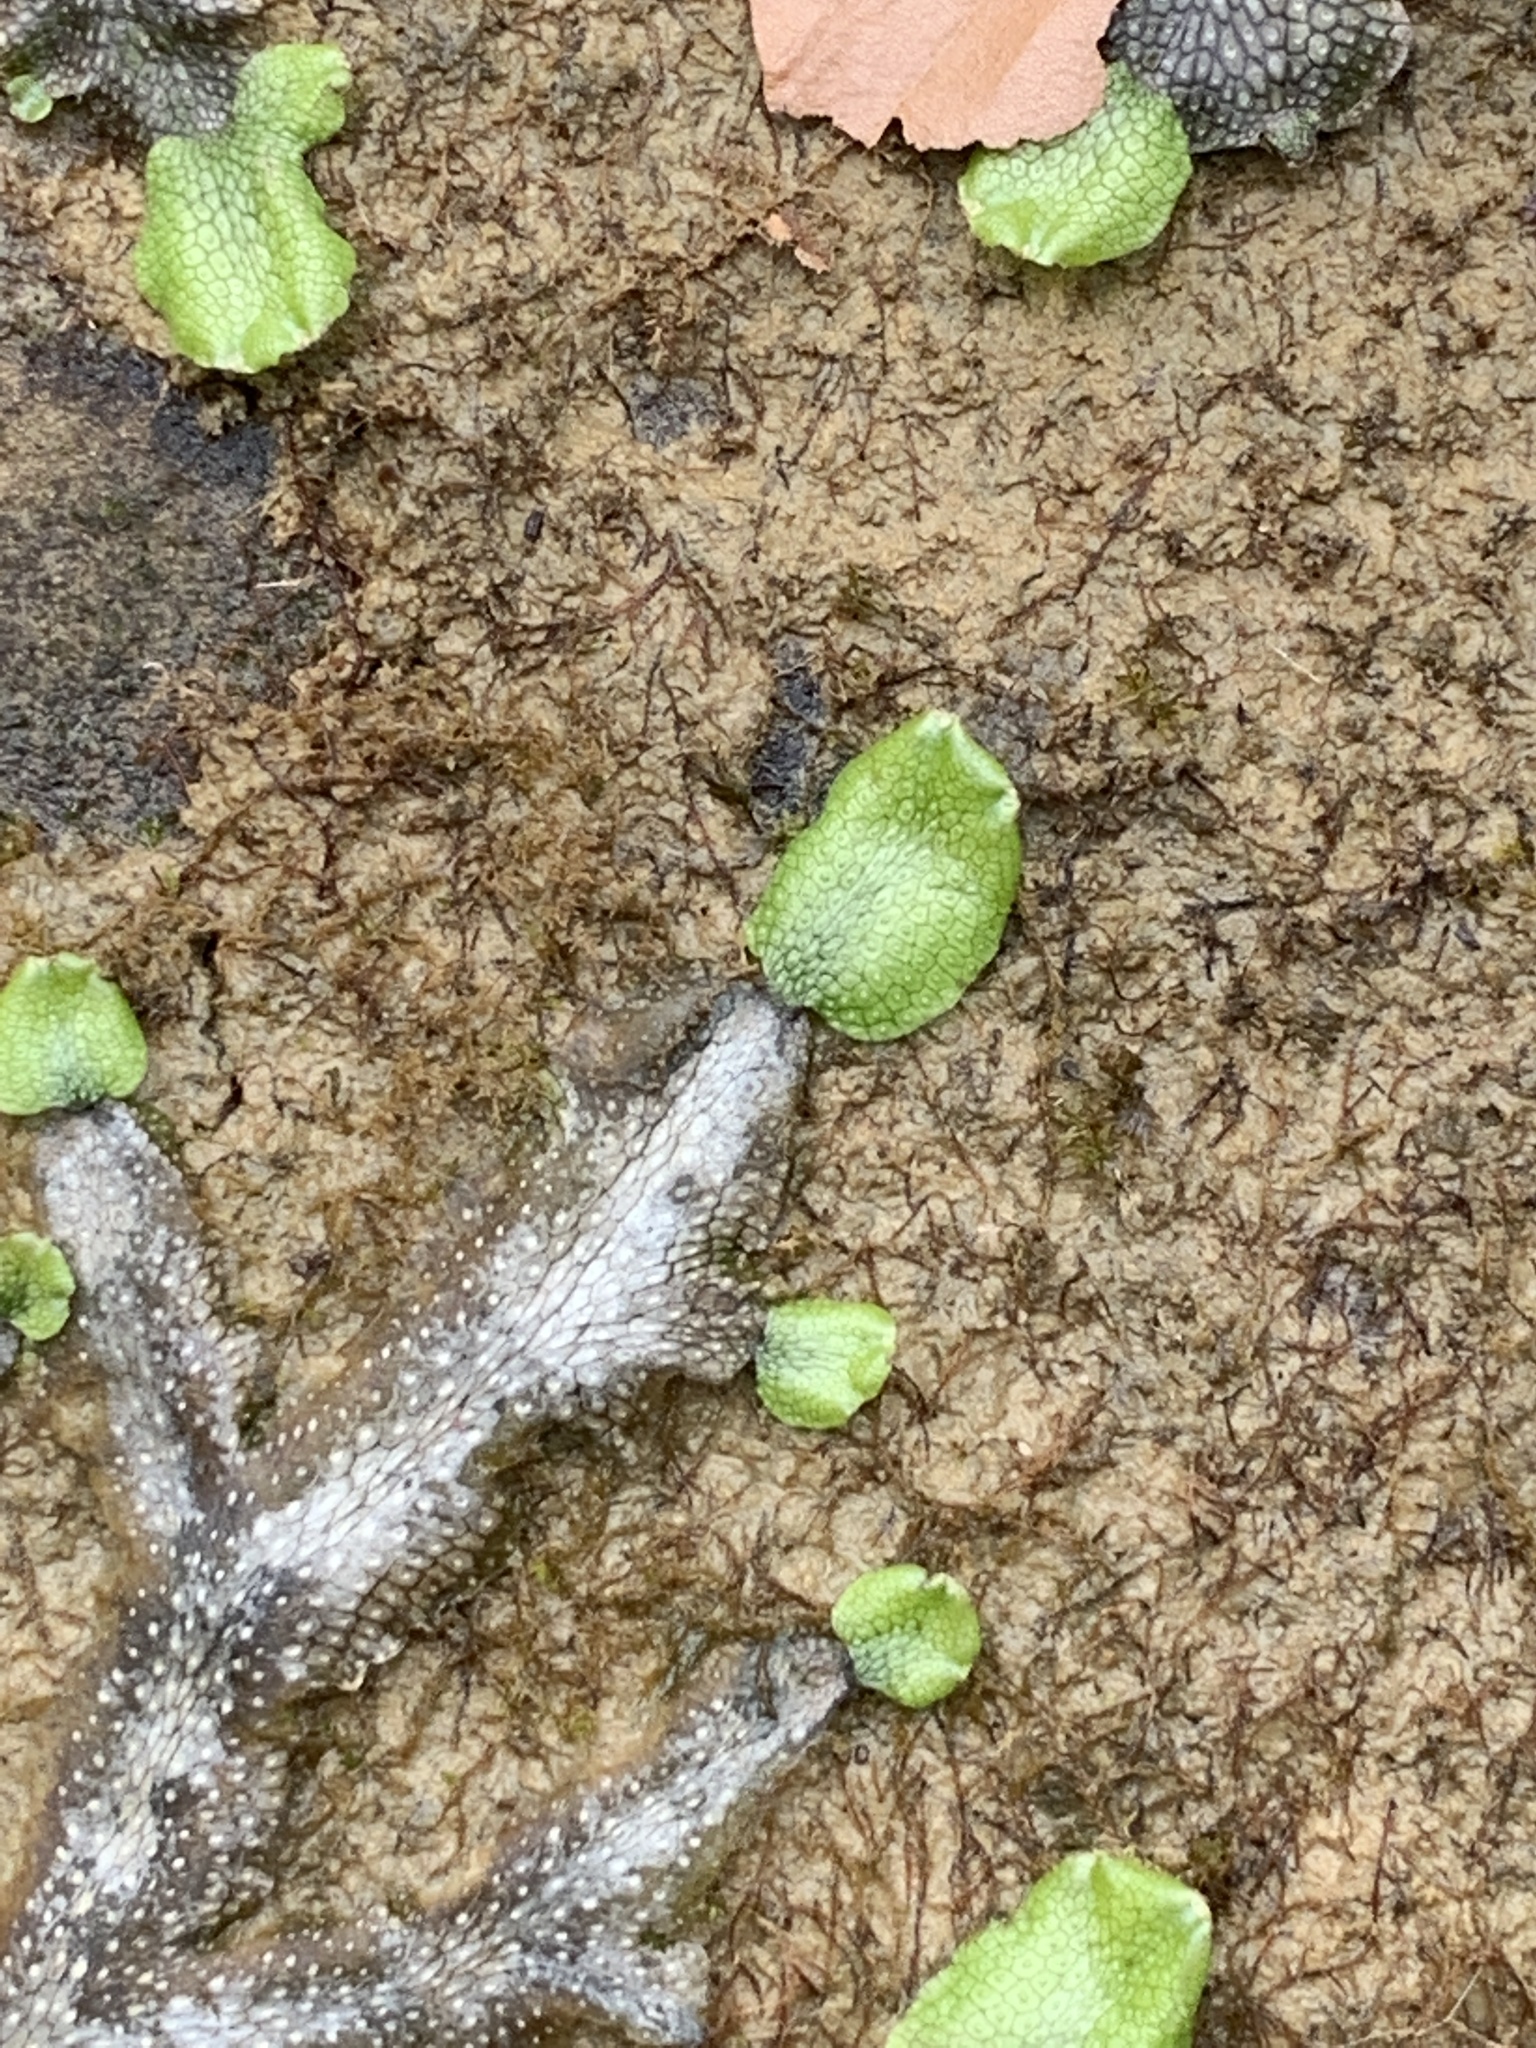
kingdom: Plantae
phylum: Marchantiophyta
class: Marchantiopsida
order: Marchantiales
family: Conocephalaceae
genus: Conocephalum
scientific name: Conocephalum salebrosum
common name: Cat-tongue liverwort
